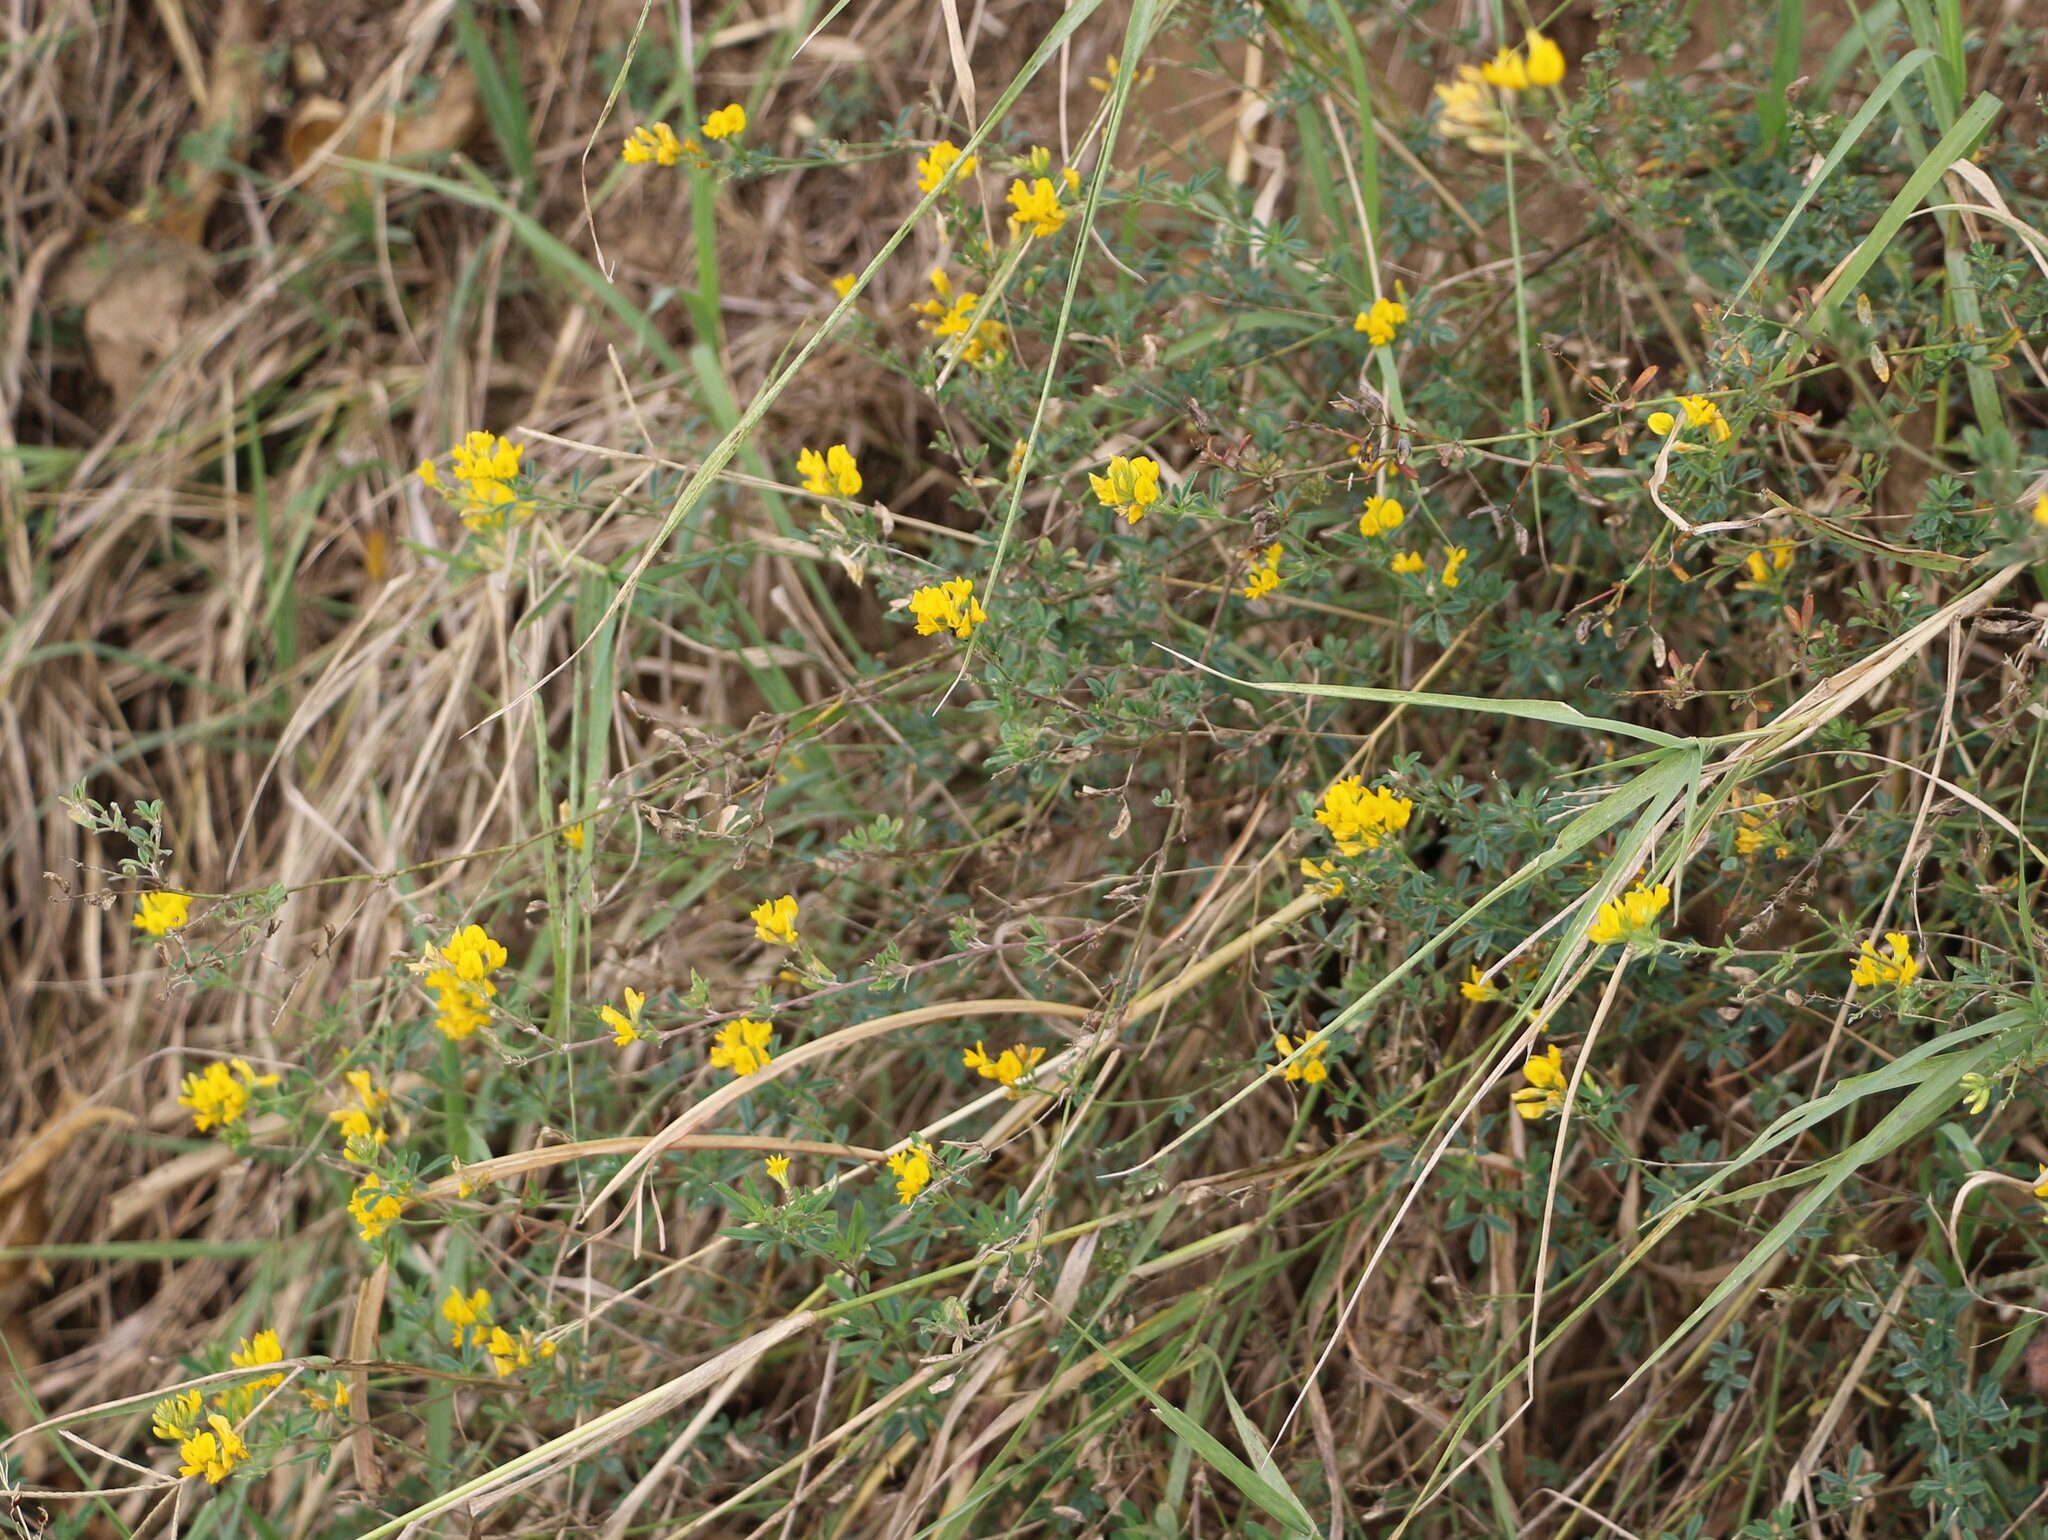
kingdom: Plantae
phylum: Tracheophyta
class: Magnoliopsida
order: Fabales
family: Fabaceae
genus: Medicago
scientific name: Medicago falcata
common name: Sickle medick
